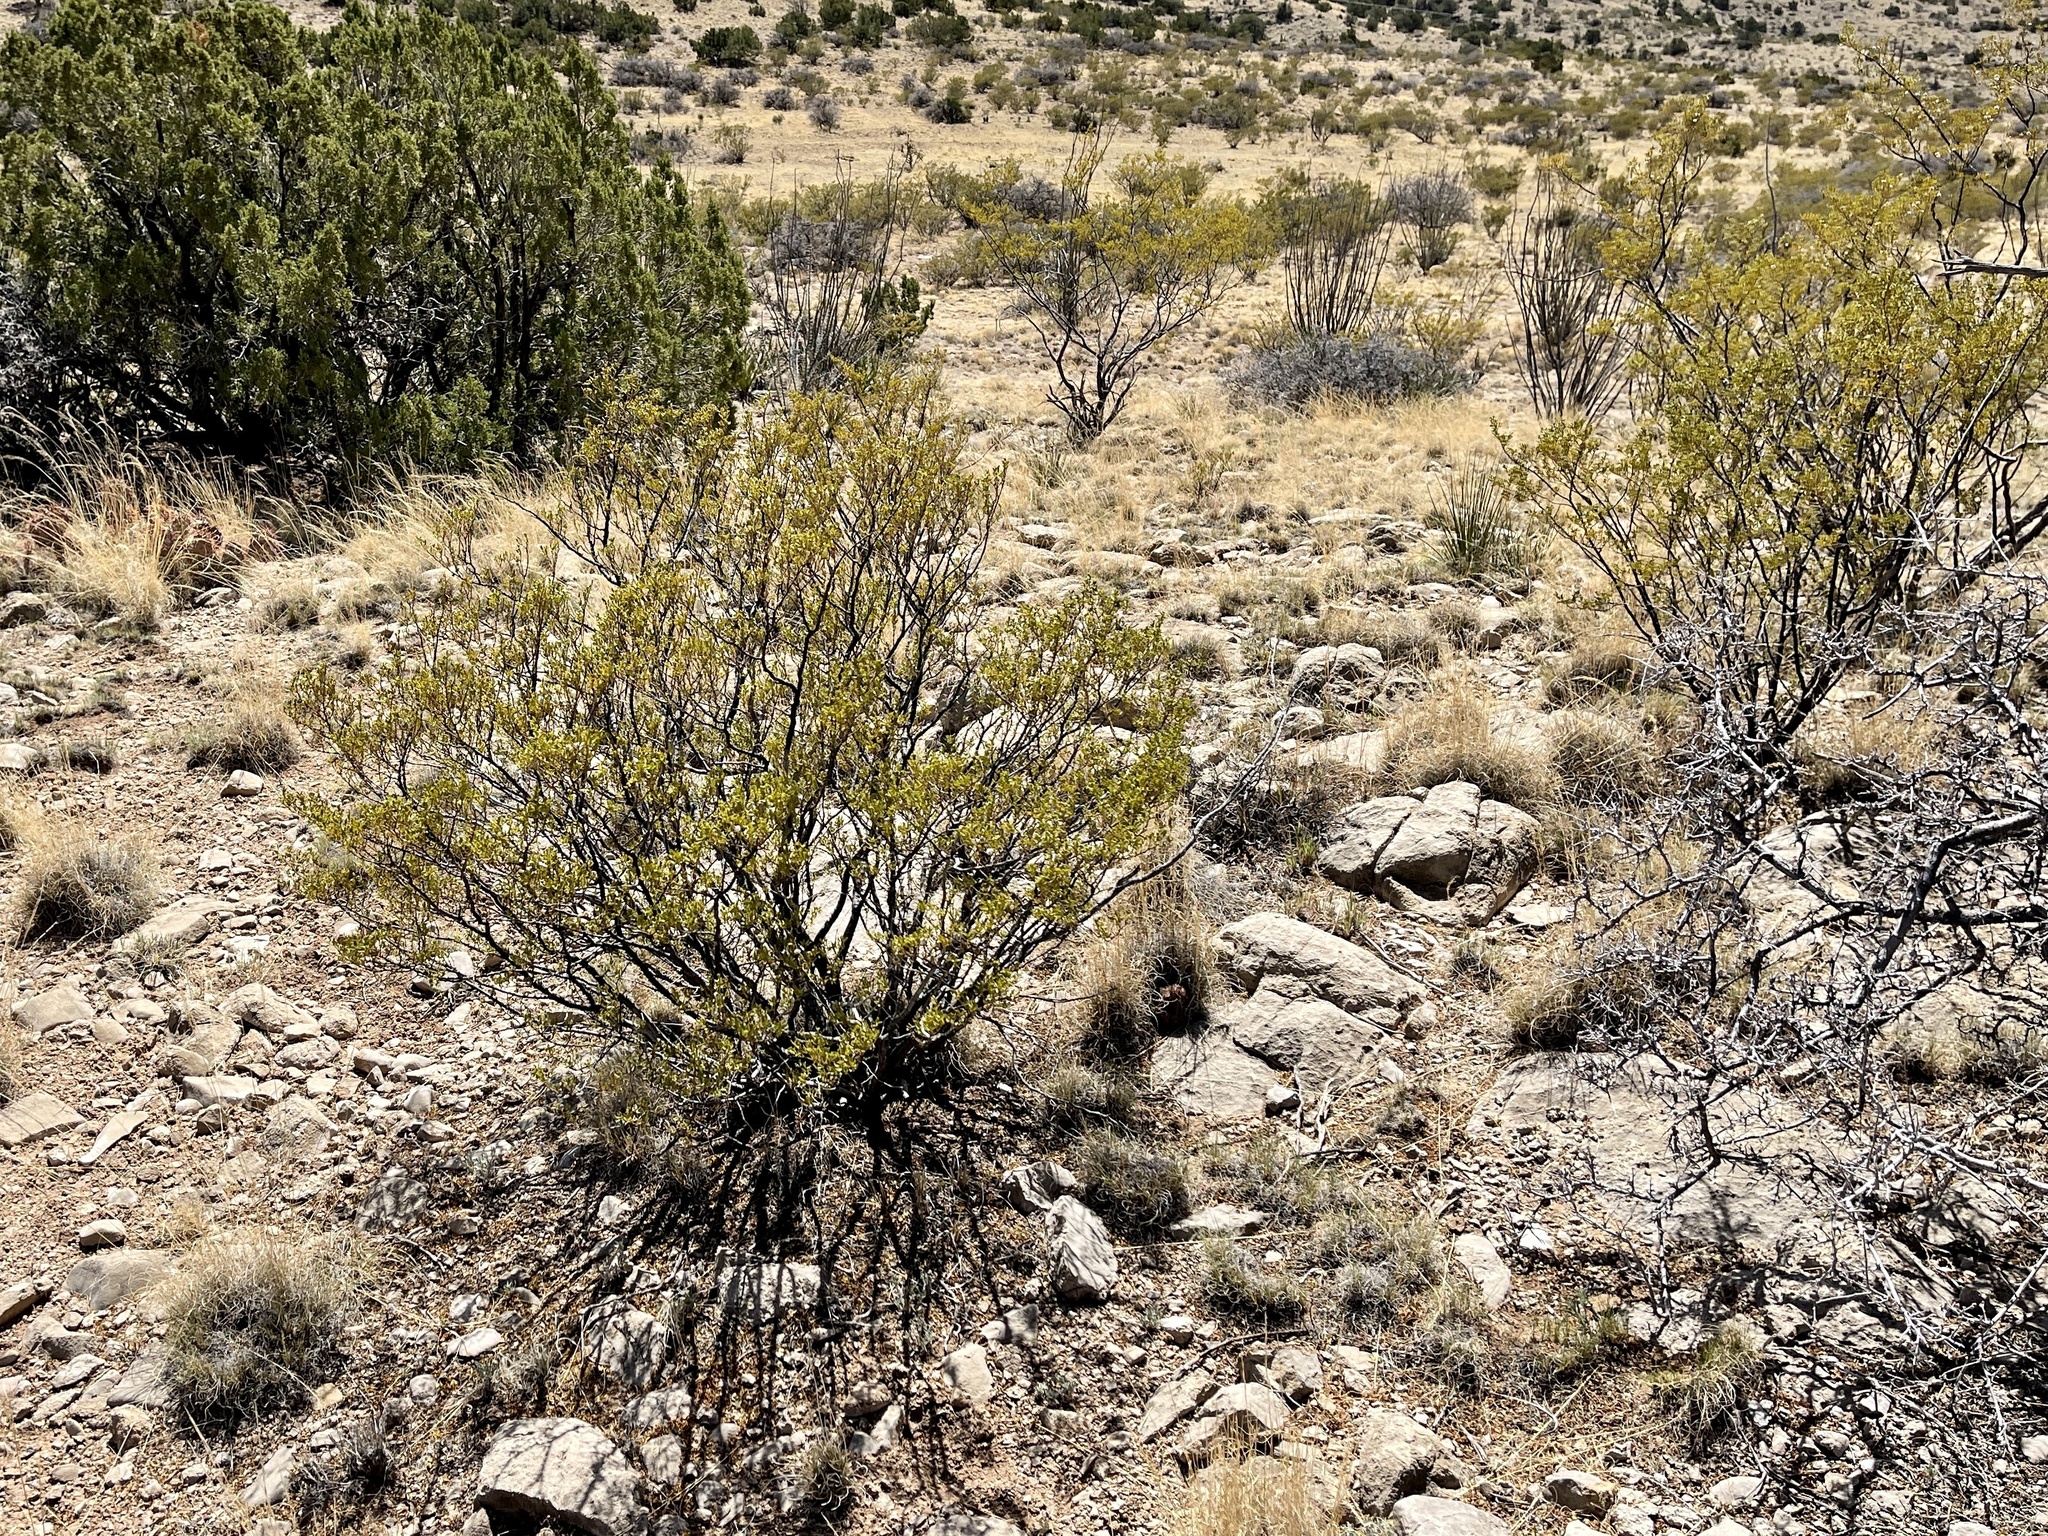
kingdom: Plantae
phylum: Tracheophyta
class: Magnoliopsida
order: Zygophyllales
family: Zygophyllaceae
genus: Larrea
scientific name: Larrea tridentata
